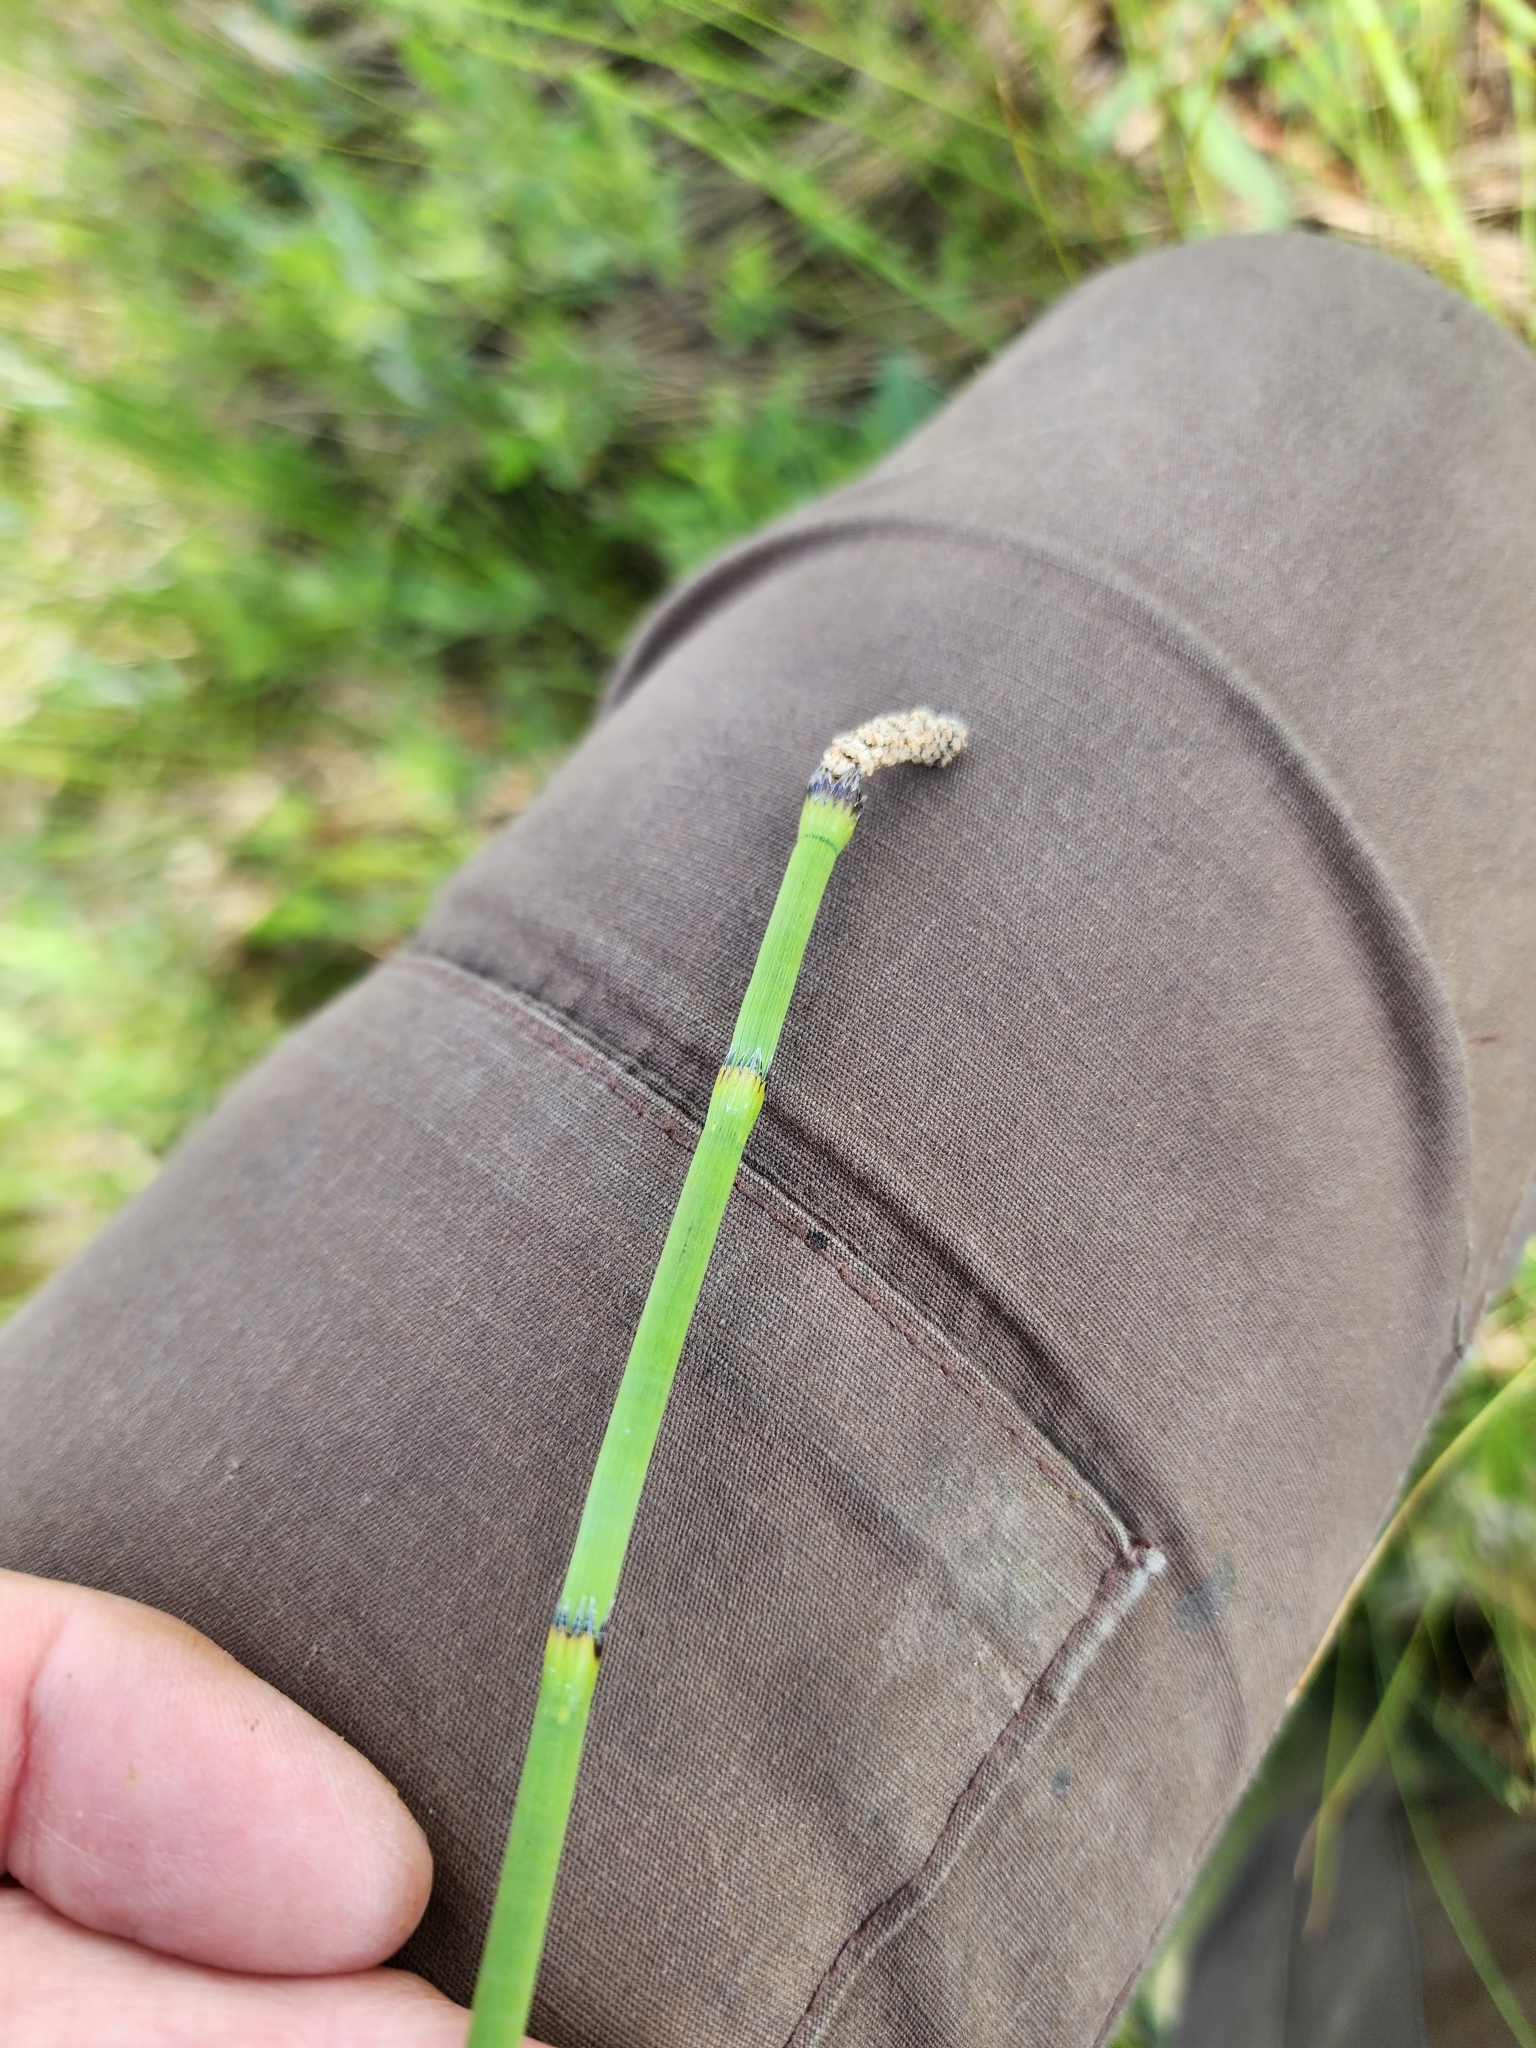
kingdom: Plantae
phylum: Tracheophyta
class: Polypodiopsida
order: Equisetales
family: Equisetaceae
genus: Equisetum
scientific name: Equisetum fluviatile
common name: Water horsetail
